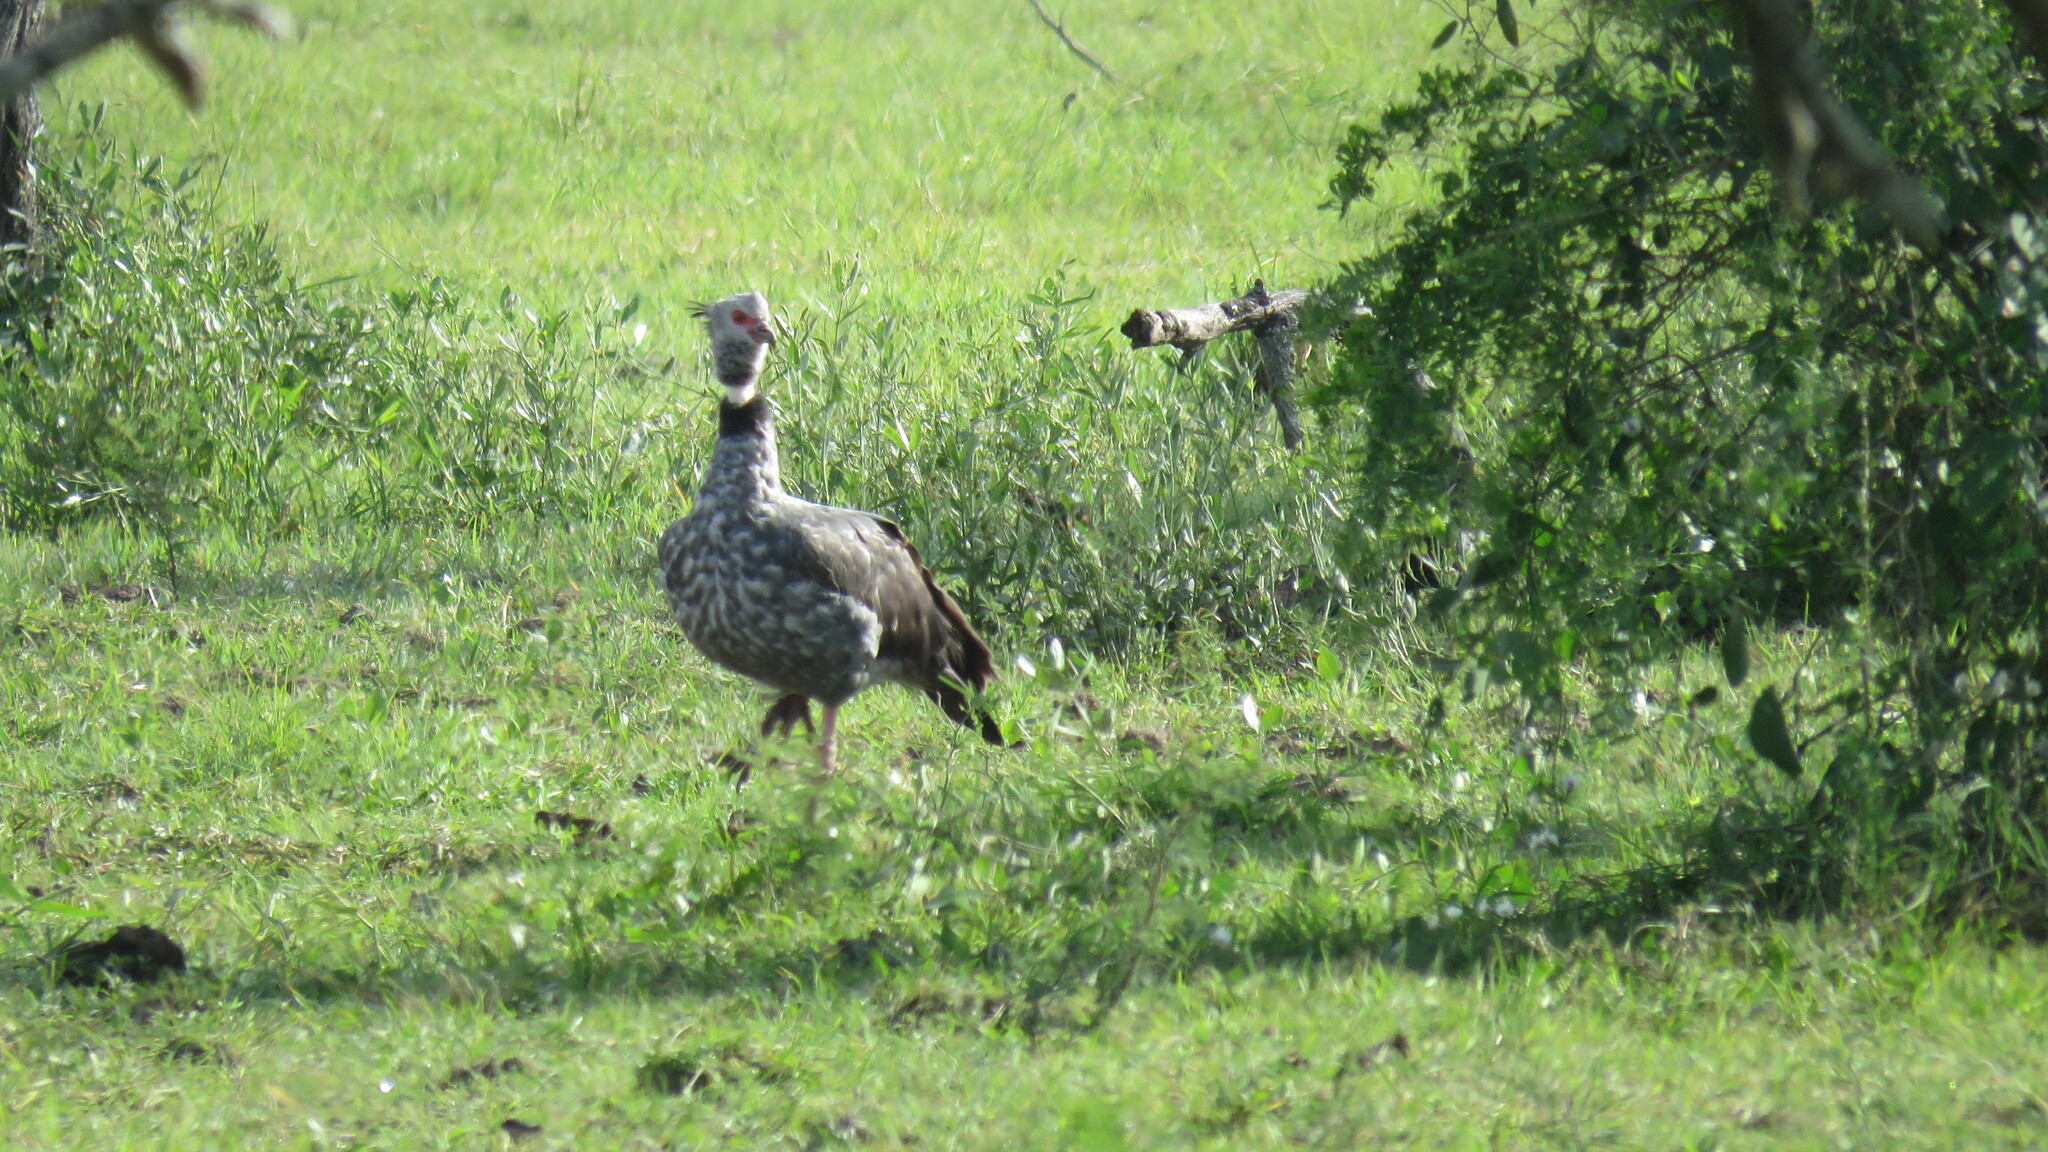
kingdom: Animalia
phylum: Chordata
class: Aves
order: Anseriformes
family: Anhimidae
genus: Chauna
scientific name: Chauna torquata
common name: Southern screamer
